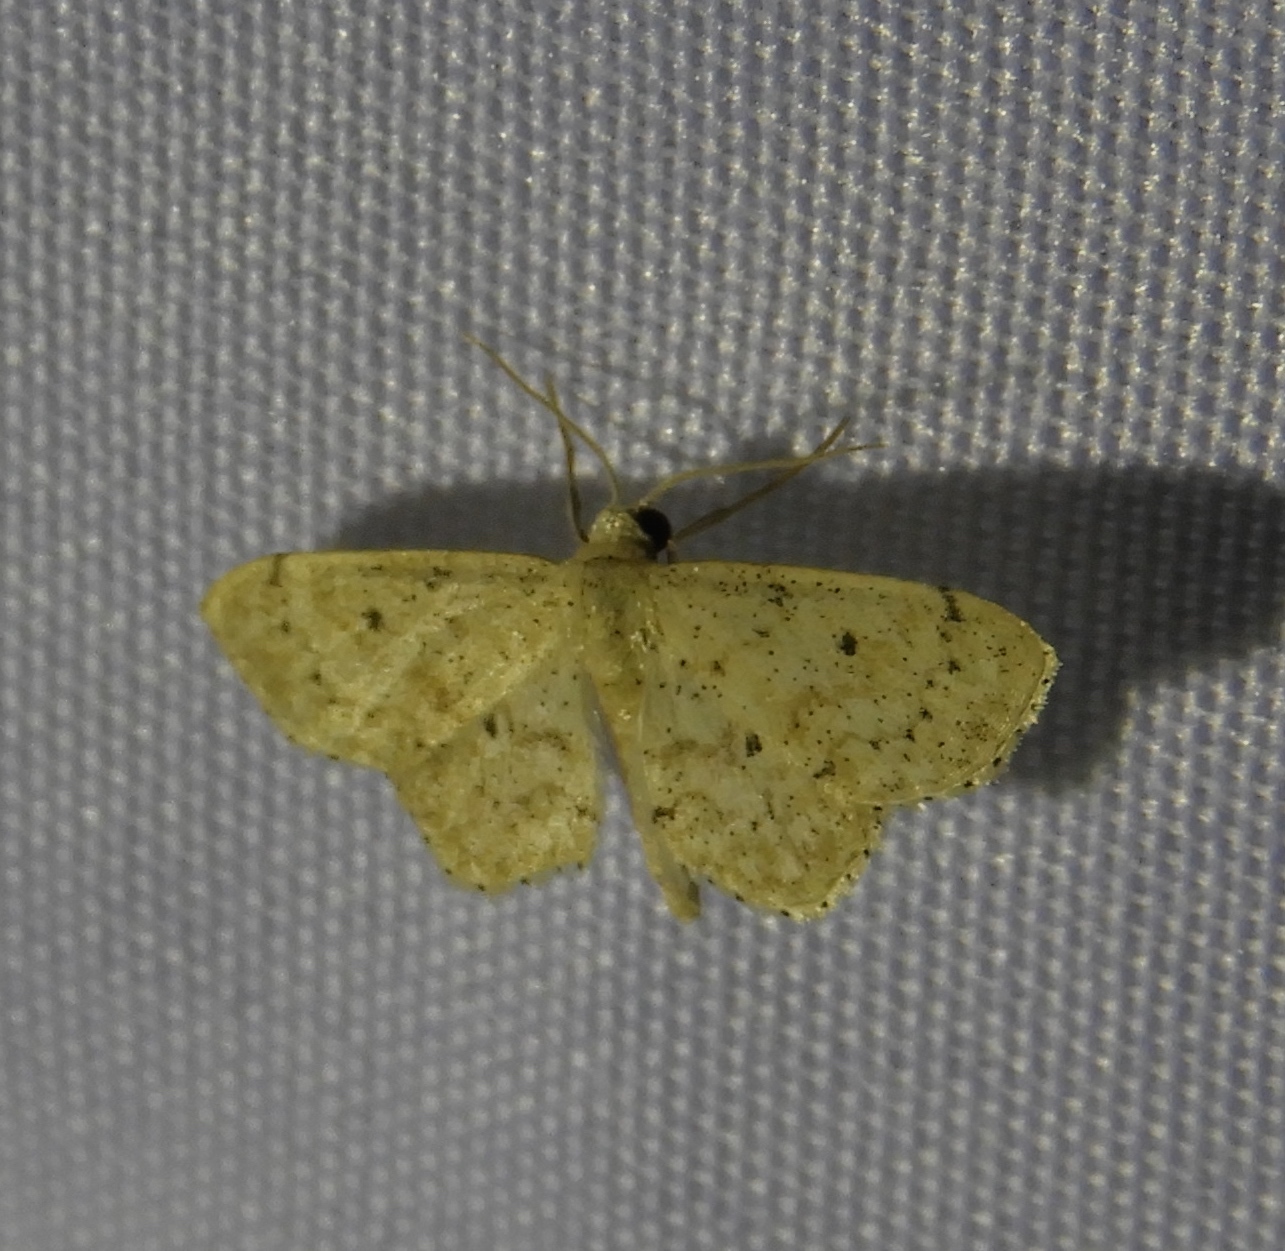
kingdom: Animalia
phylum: Arthropoda
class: Insecta
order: Lepidoptera
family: Geometridae
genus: Idaea
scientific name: Idaea
